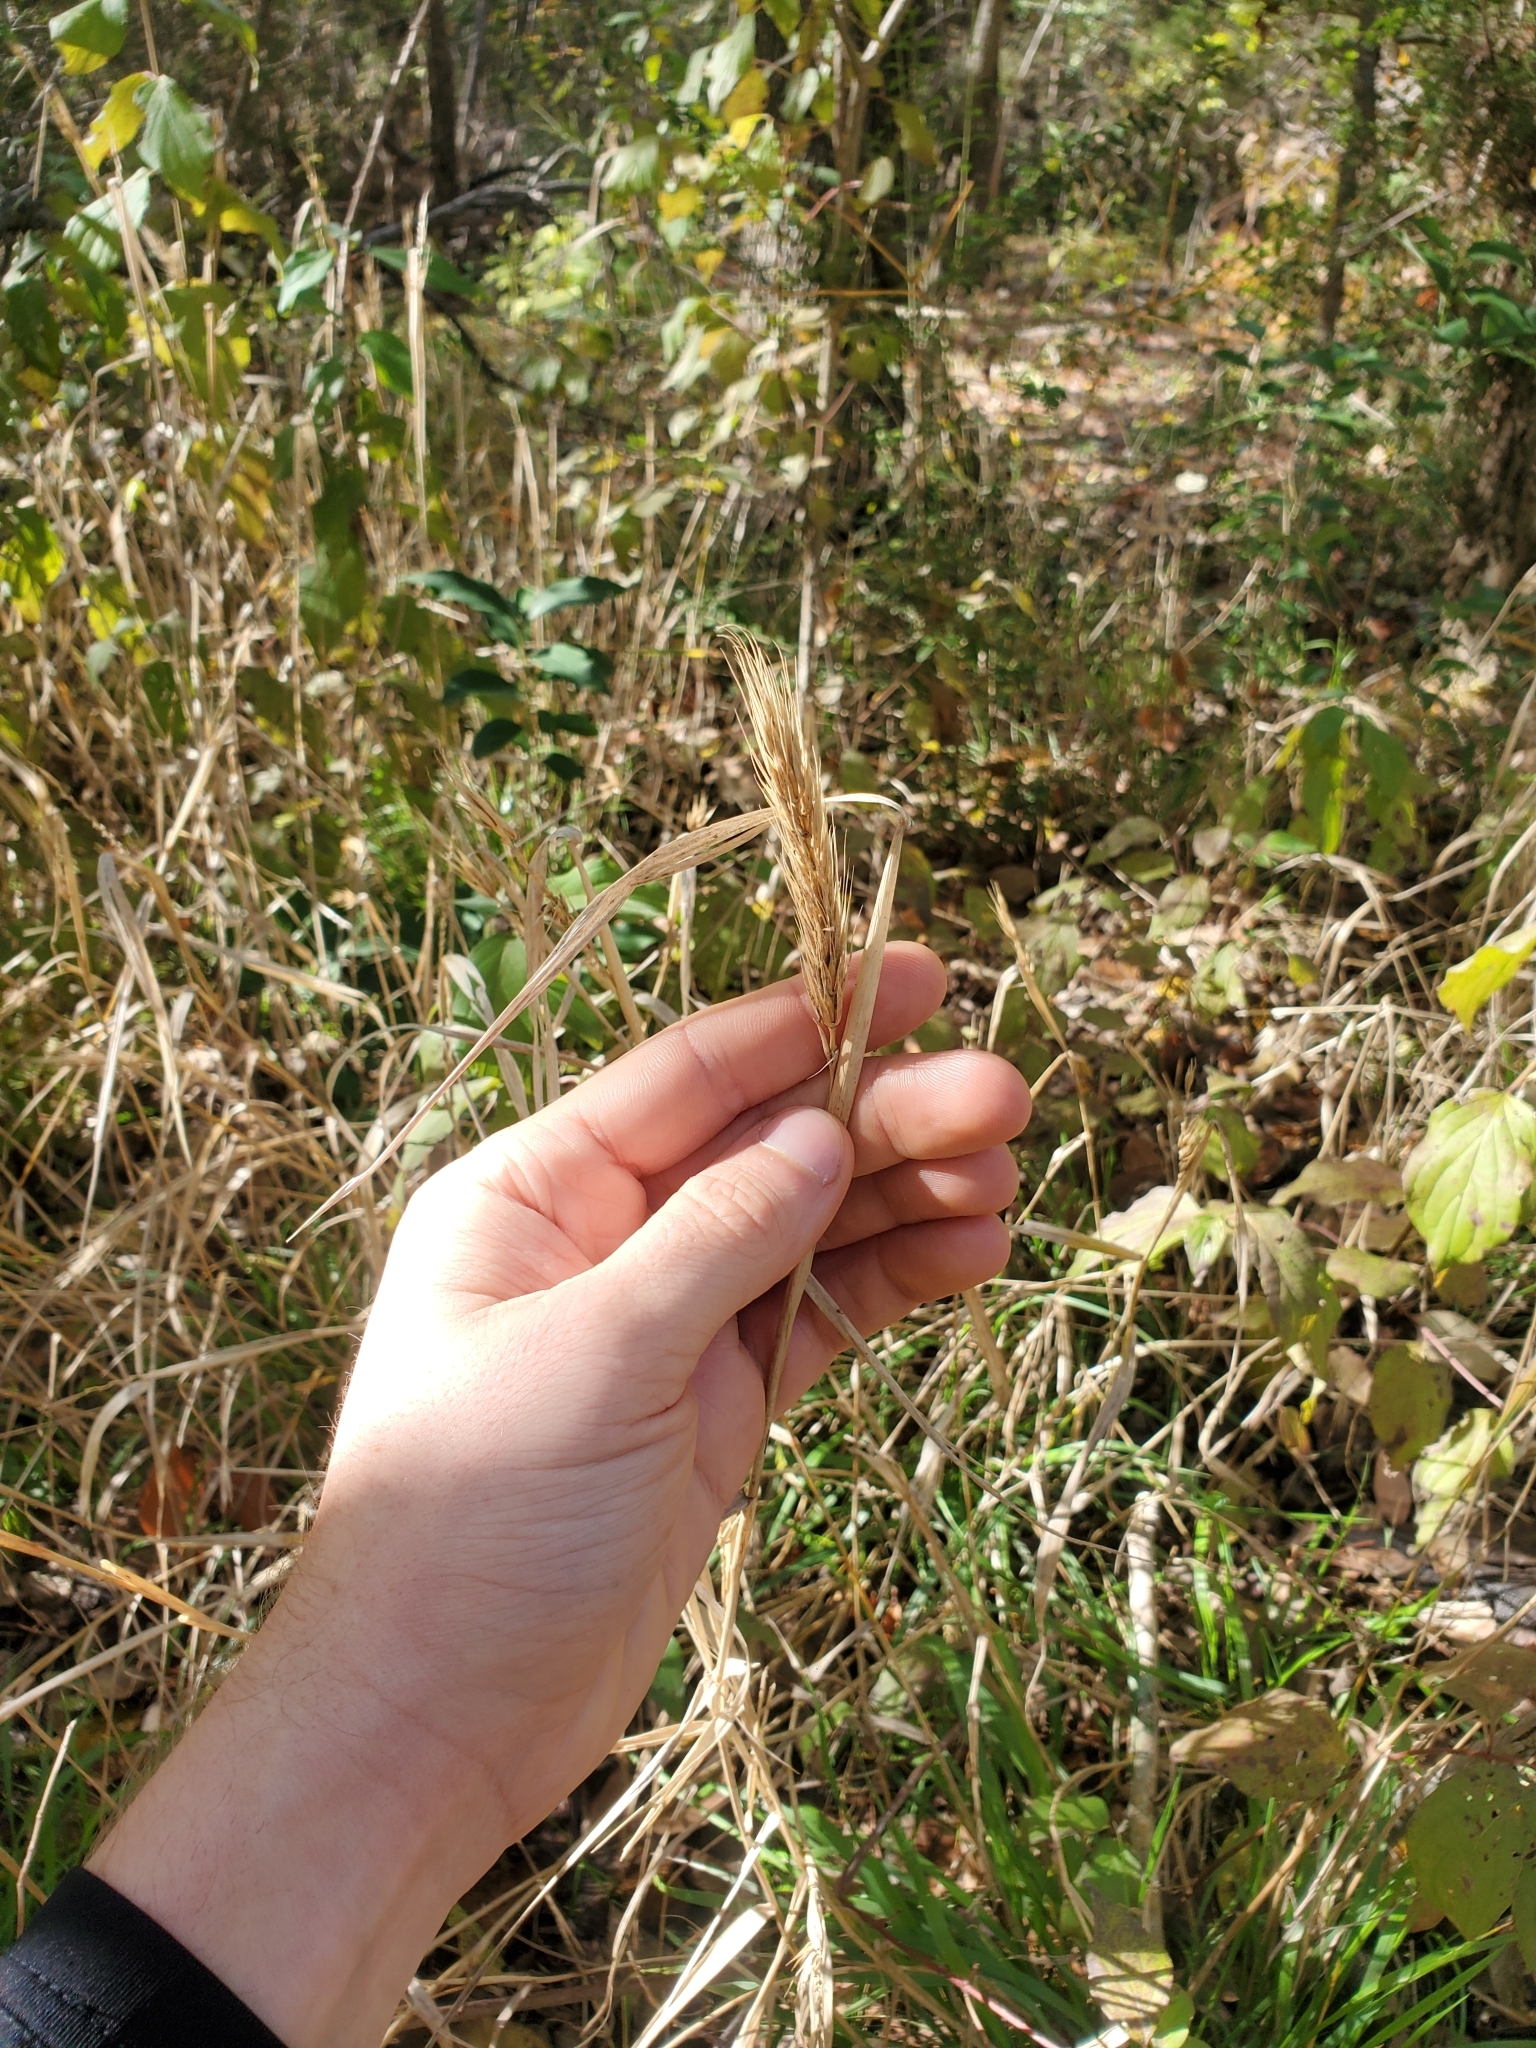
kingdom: Plantae
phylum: Tracheophyta
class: Liliopsida
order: Poales
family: Poaceae
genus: Elymus
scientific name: Elymus virginicus
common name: Common eastern wildrye
